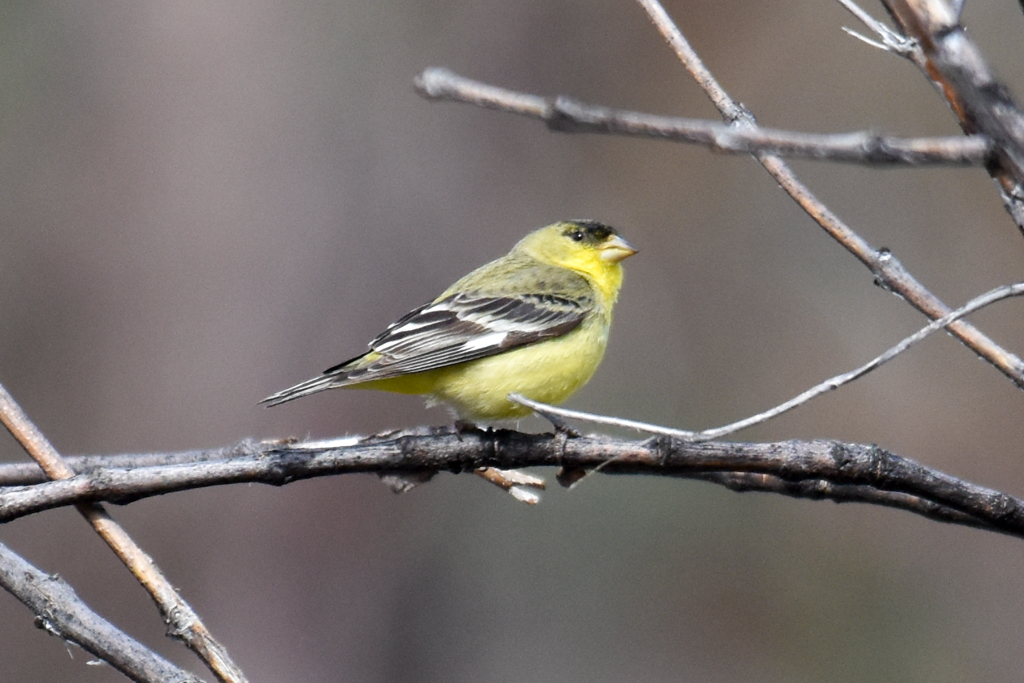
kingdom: Animalia
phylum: Chordata
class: Aves
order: Passeriformes
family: Fringillidae
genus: Spinus
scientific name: Spinus psaltria
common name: Lesser goldfinch
